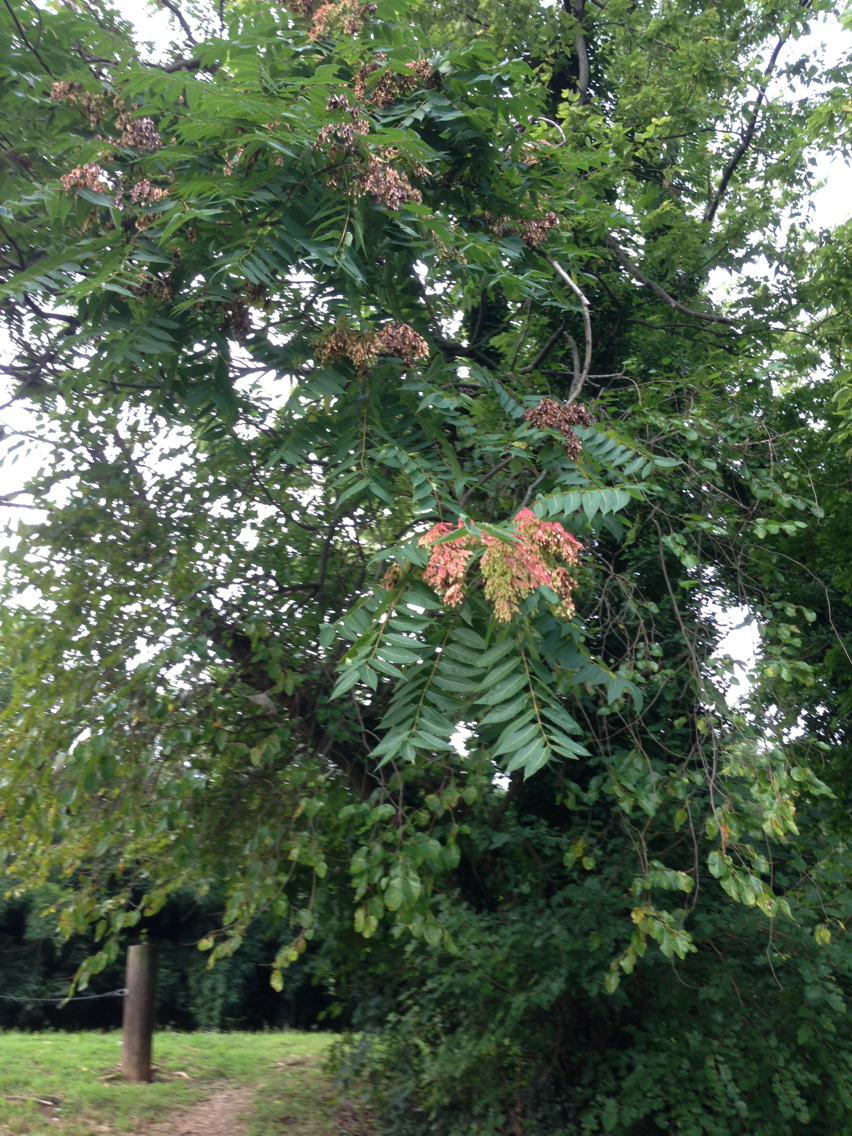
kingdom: Plantae
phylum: Tracheophyta
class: Magnoliopsida
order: Sapindales
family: Simaroubaceae
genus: Ailanthus
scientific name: Ailanthus altissima
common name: Tree-of-heaven
